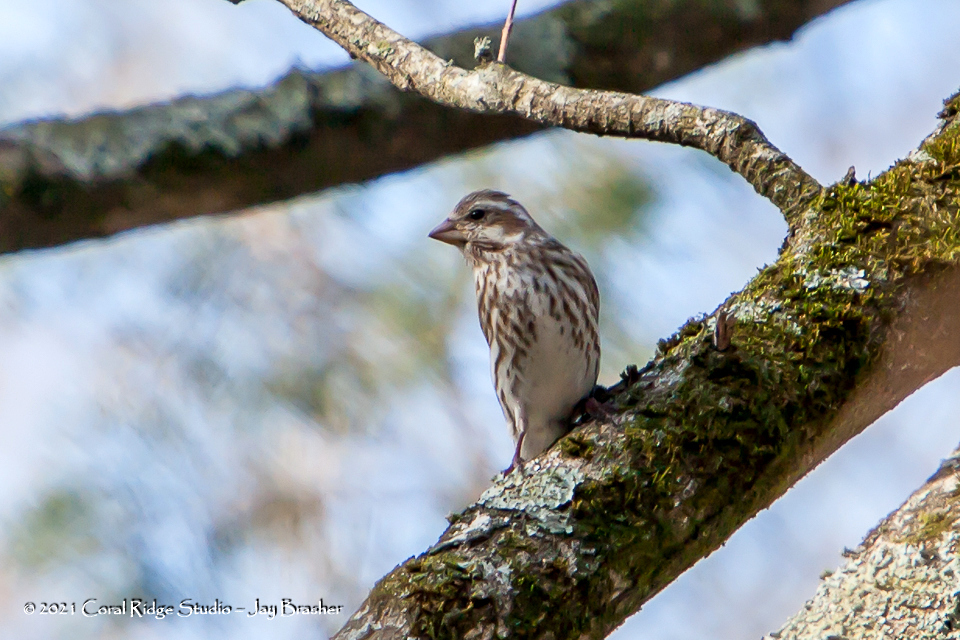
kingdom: Animalia
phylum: Chordata
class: Aves
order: Passeriformes
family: Fringillidae
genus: Haemorhous
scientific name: Haemorhous purpureus
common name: Purple finch
